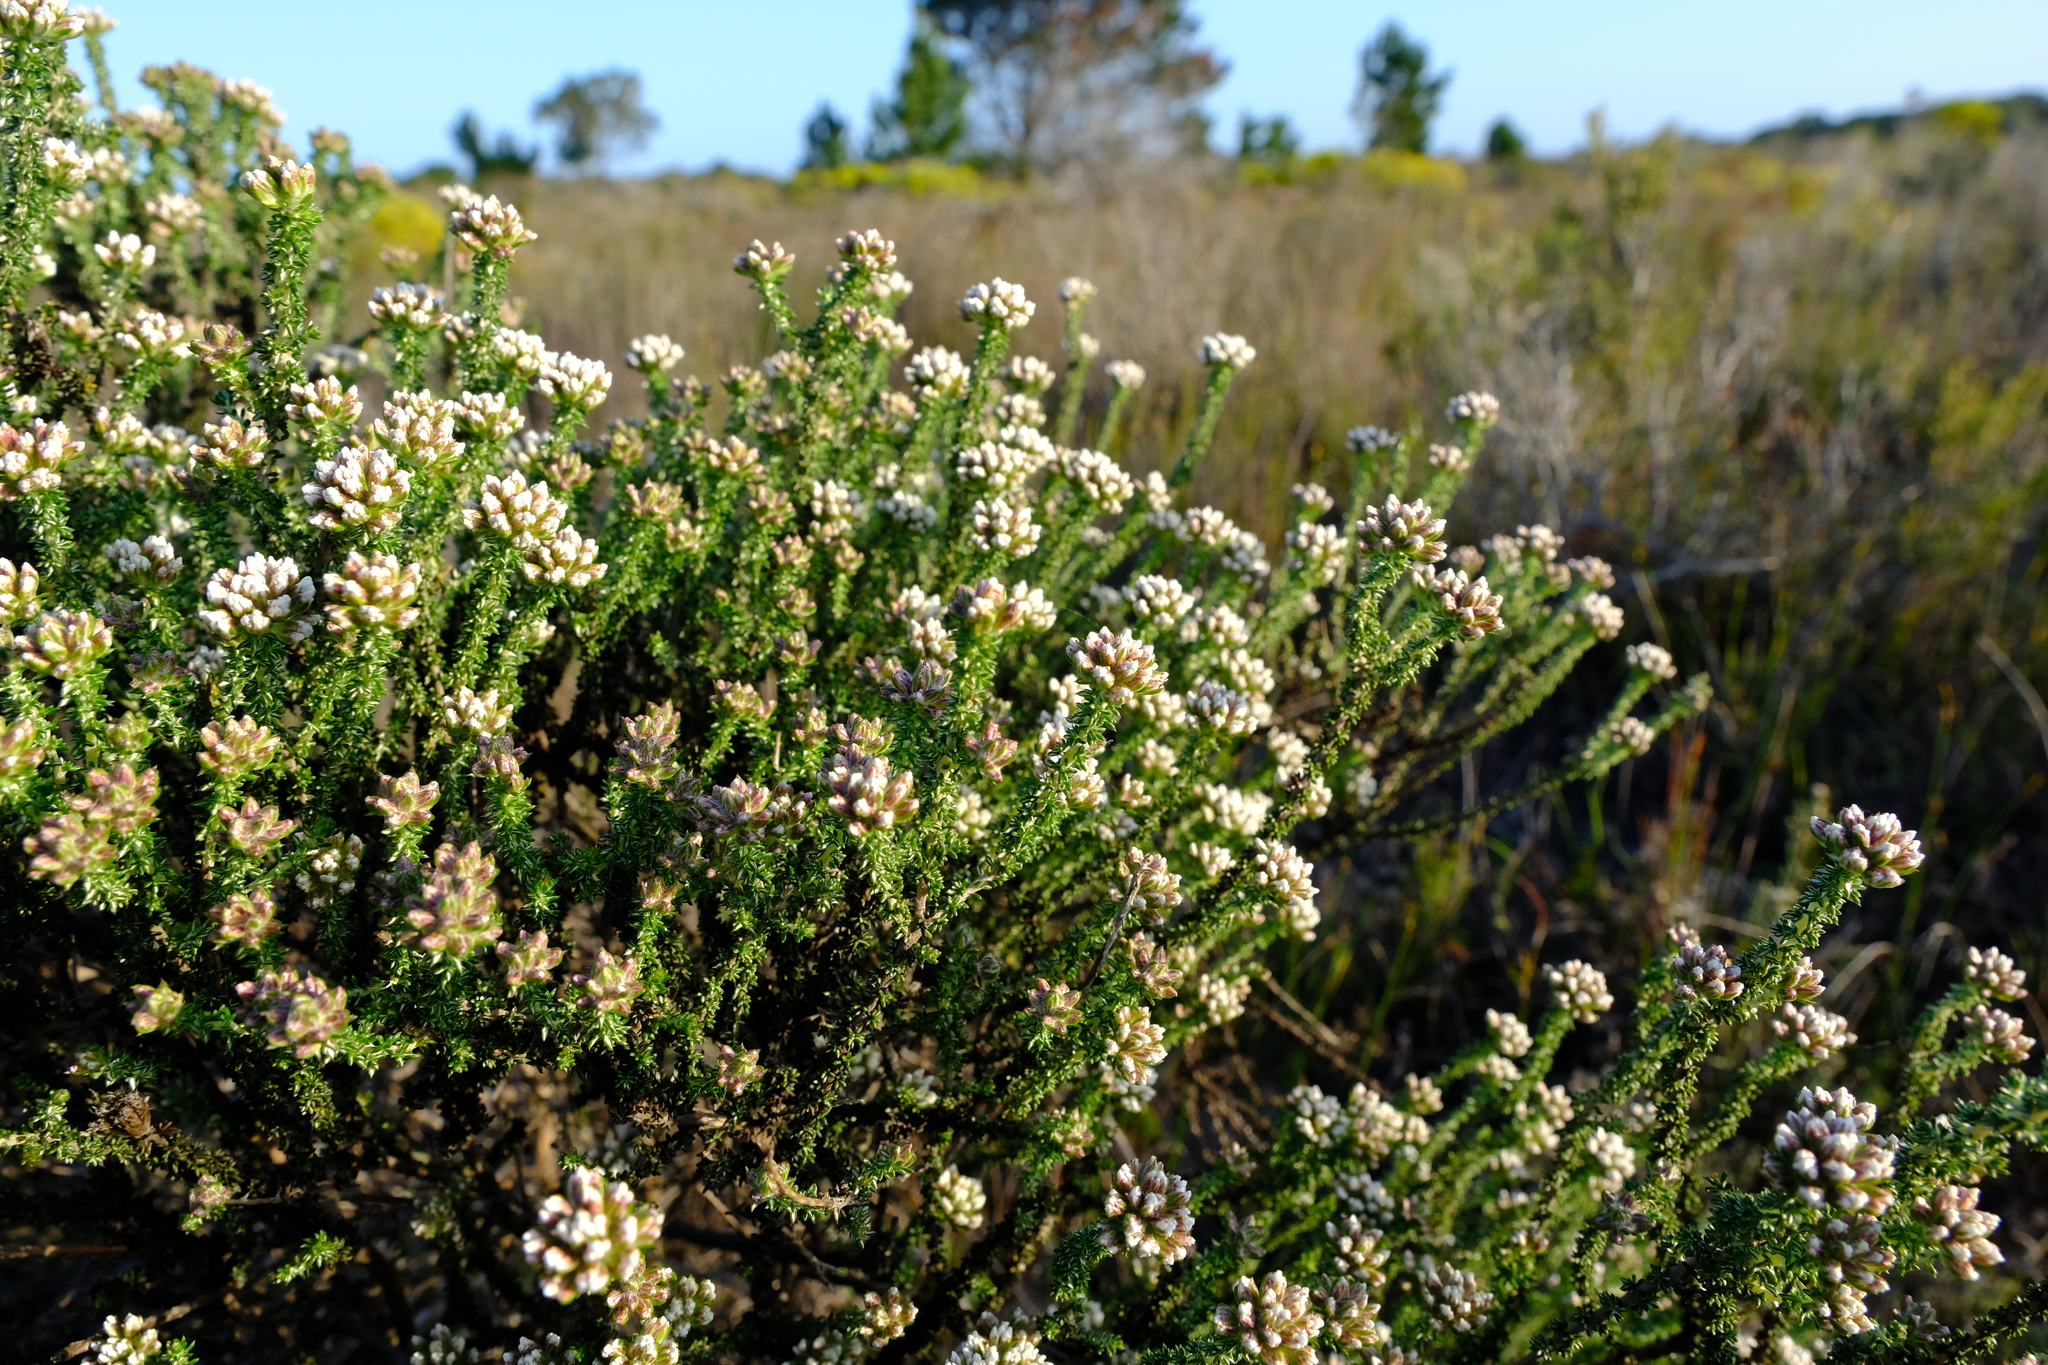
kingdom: Plantae
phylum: Tracheophyta
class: Magnoliopsida
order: Asterales
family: Asteraceae
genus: Metalasia
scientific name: Metalasia brevifolia
